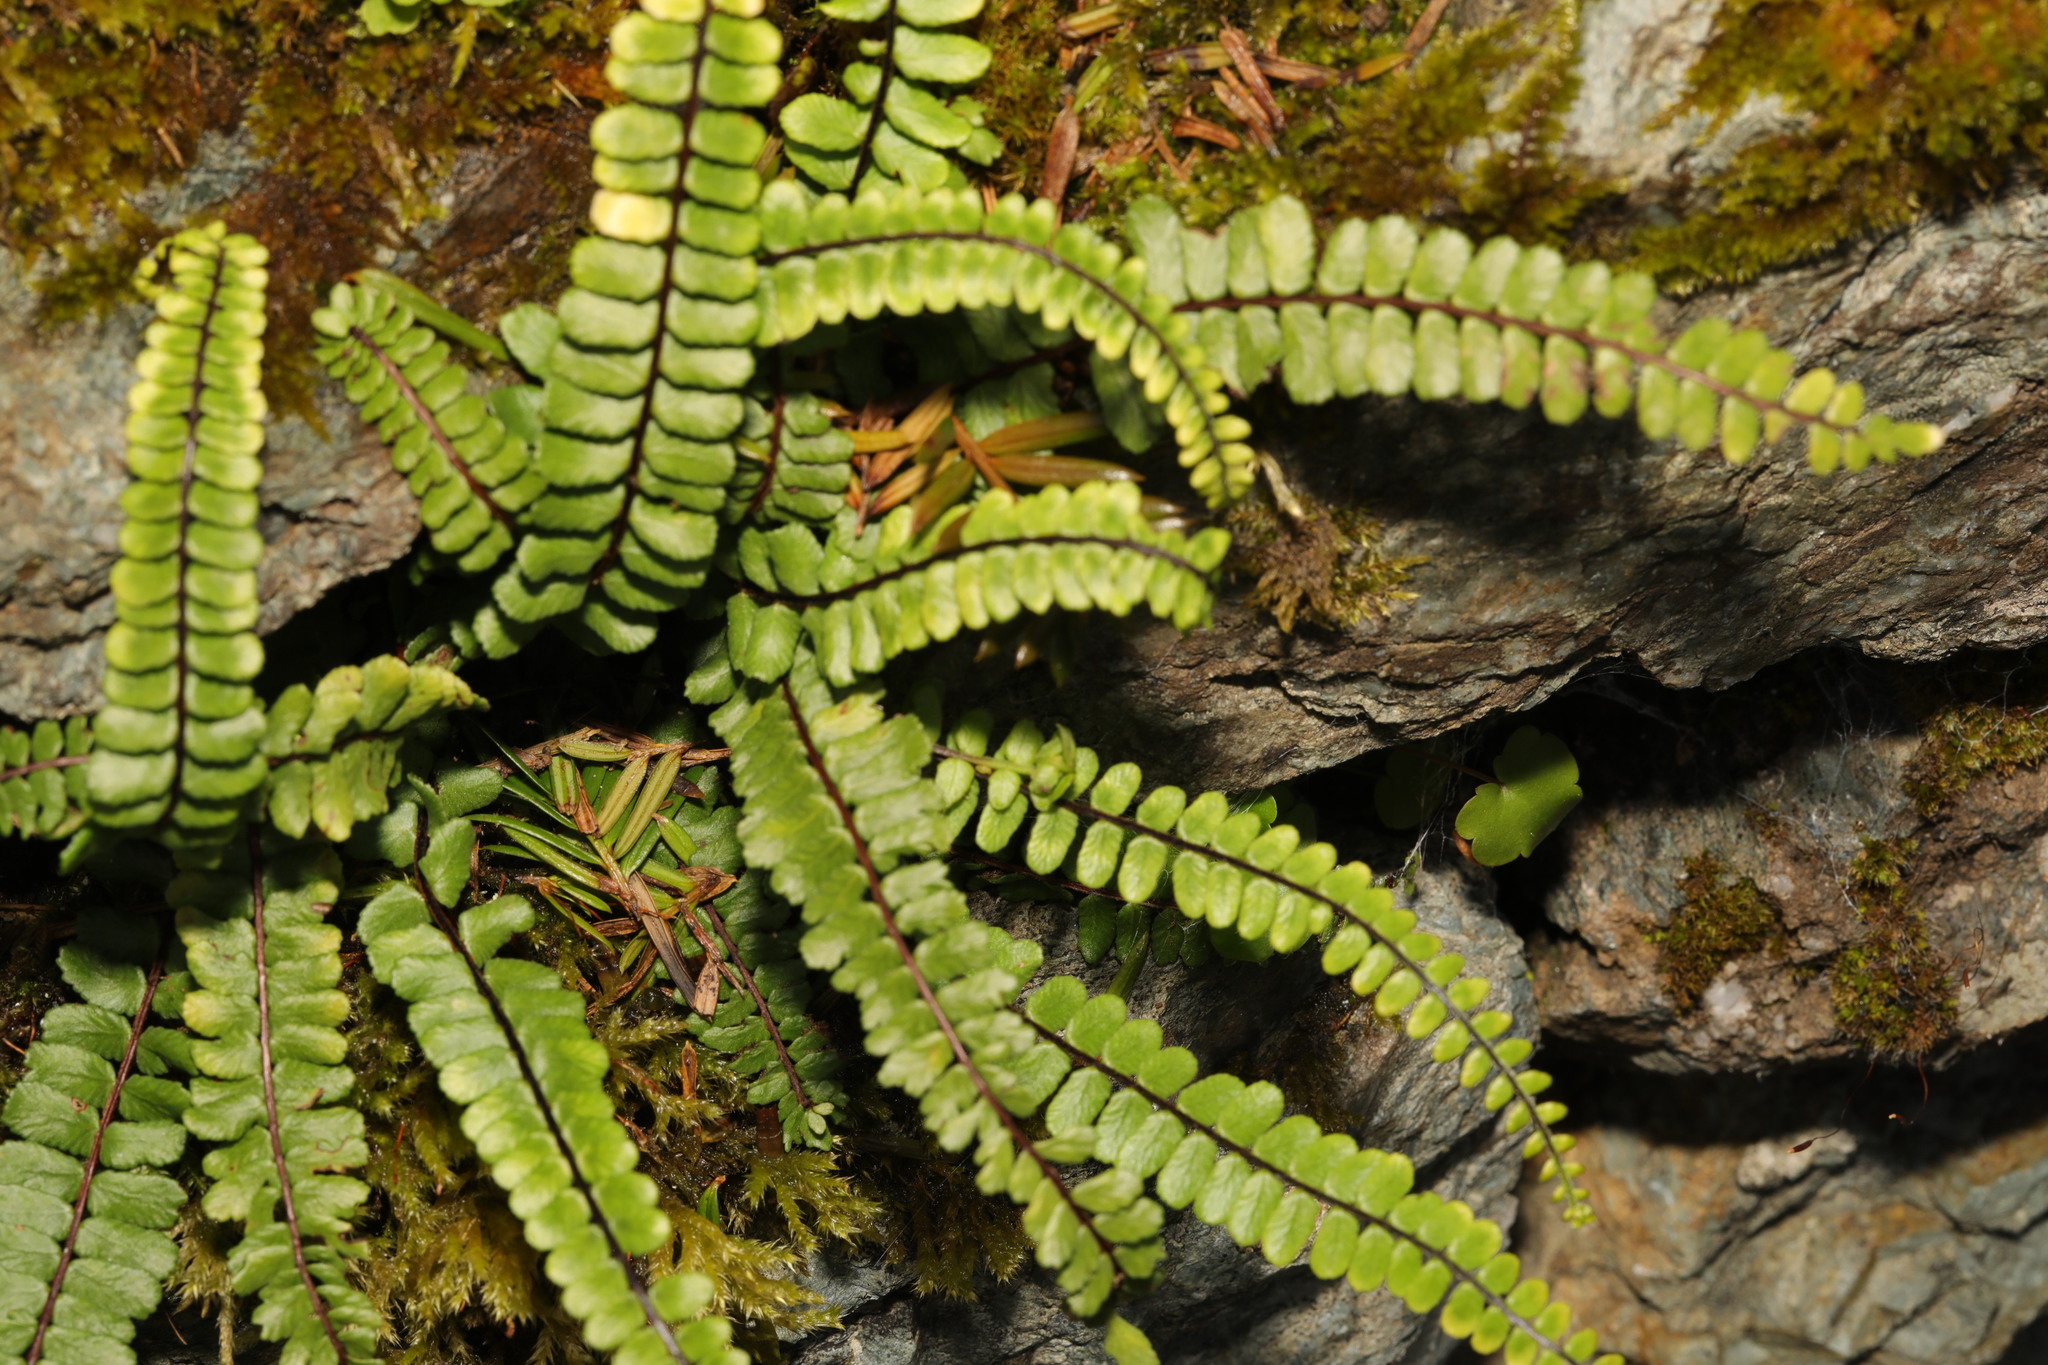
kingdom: Plantae
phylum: Tracheophyta
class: Polypodiopsida
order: Polypodiales
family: Aspleniaceae
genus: Asplenium
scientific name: Asplenium trichomanes
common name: Maidenhair spleenwort
